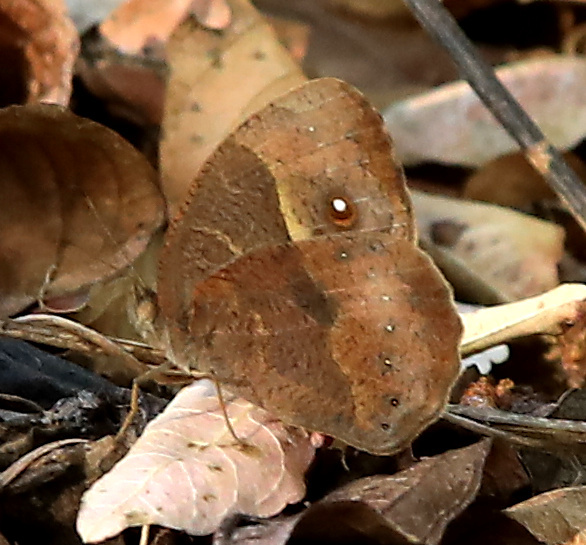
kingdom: Animalia
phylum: Arthropoda
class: Insecta
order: Lepidoptera
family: Nymphalidae
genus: Mycalesis
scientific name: Mycalesis anynana
